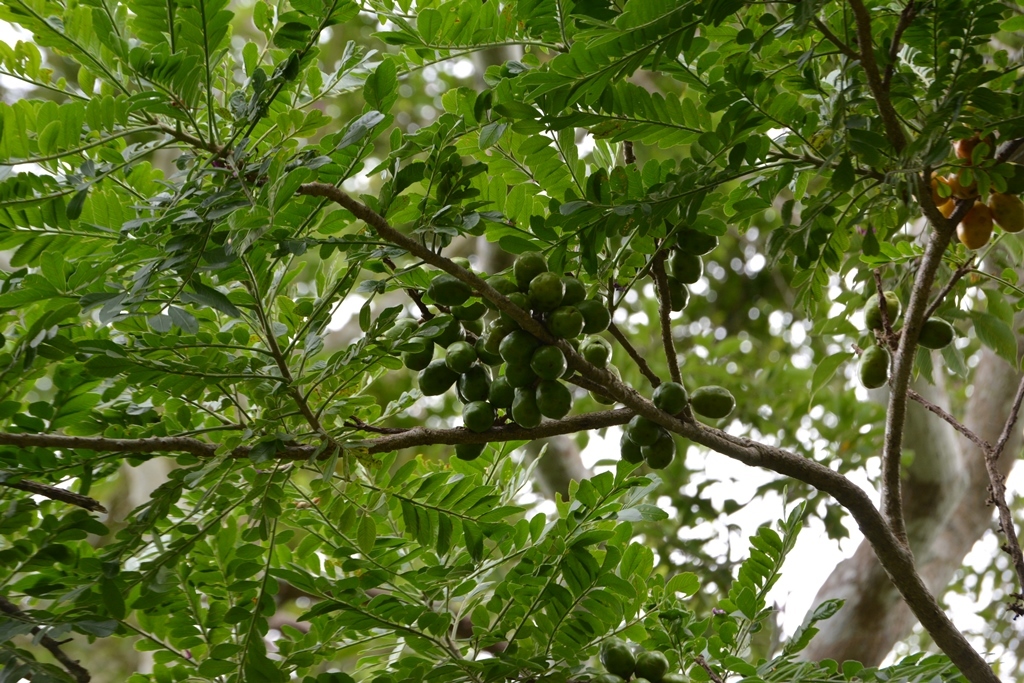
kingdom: Plantae
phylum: Tracheophyta
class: Magnoliopsida
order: Sapindales
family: Anacardiaceae
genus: Spondias
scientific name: Spondias purpurea
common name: Purple mombin
